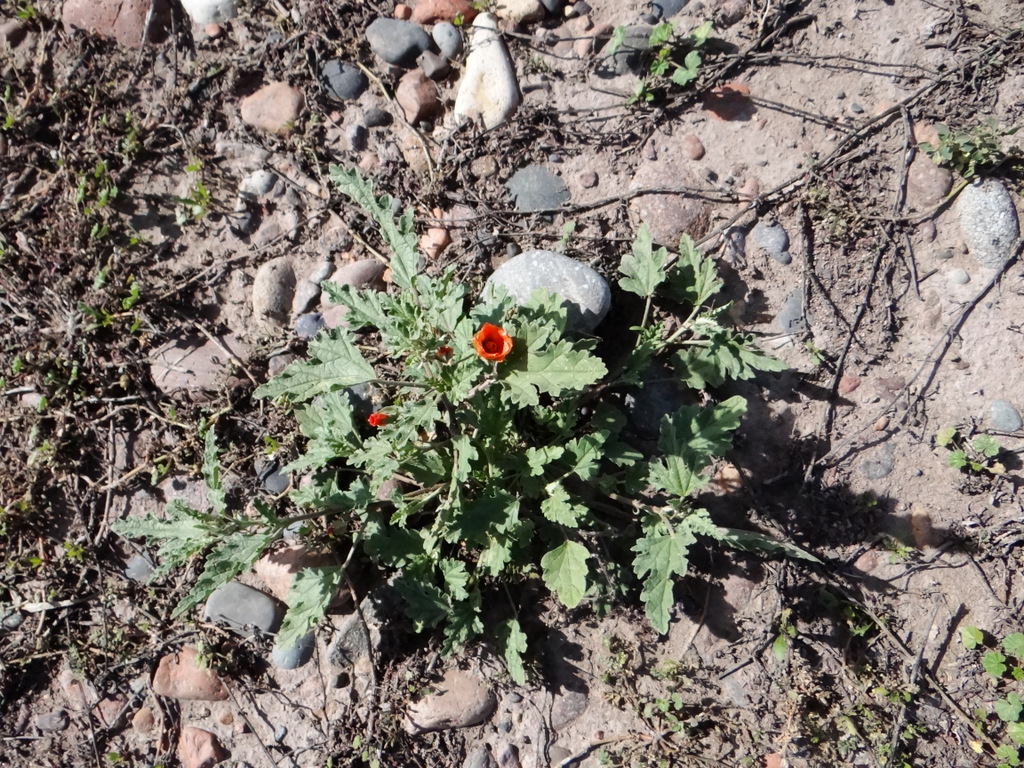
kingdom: Plantae
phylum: Tracheophyta
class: Magnoliopsida
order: Malvales
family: Malvaceae
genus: Sphaeralcea
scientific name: Sphaeralcea miniata
